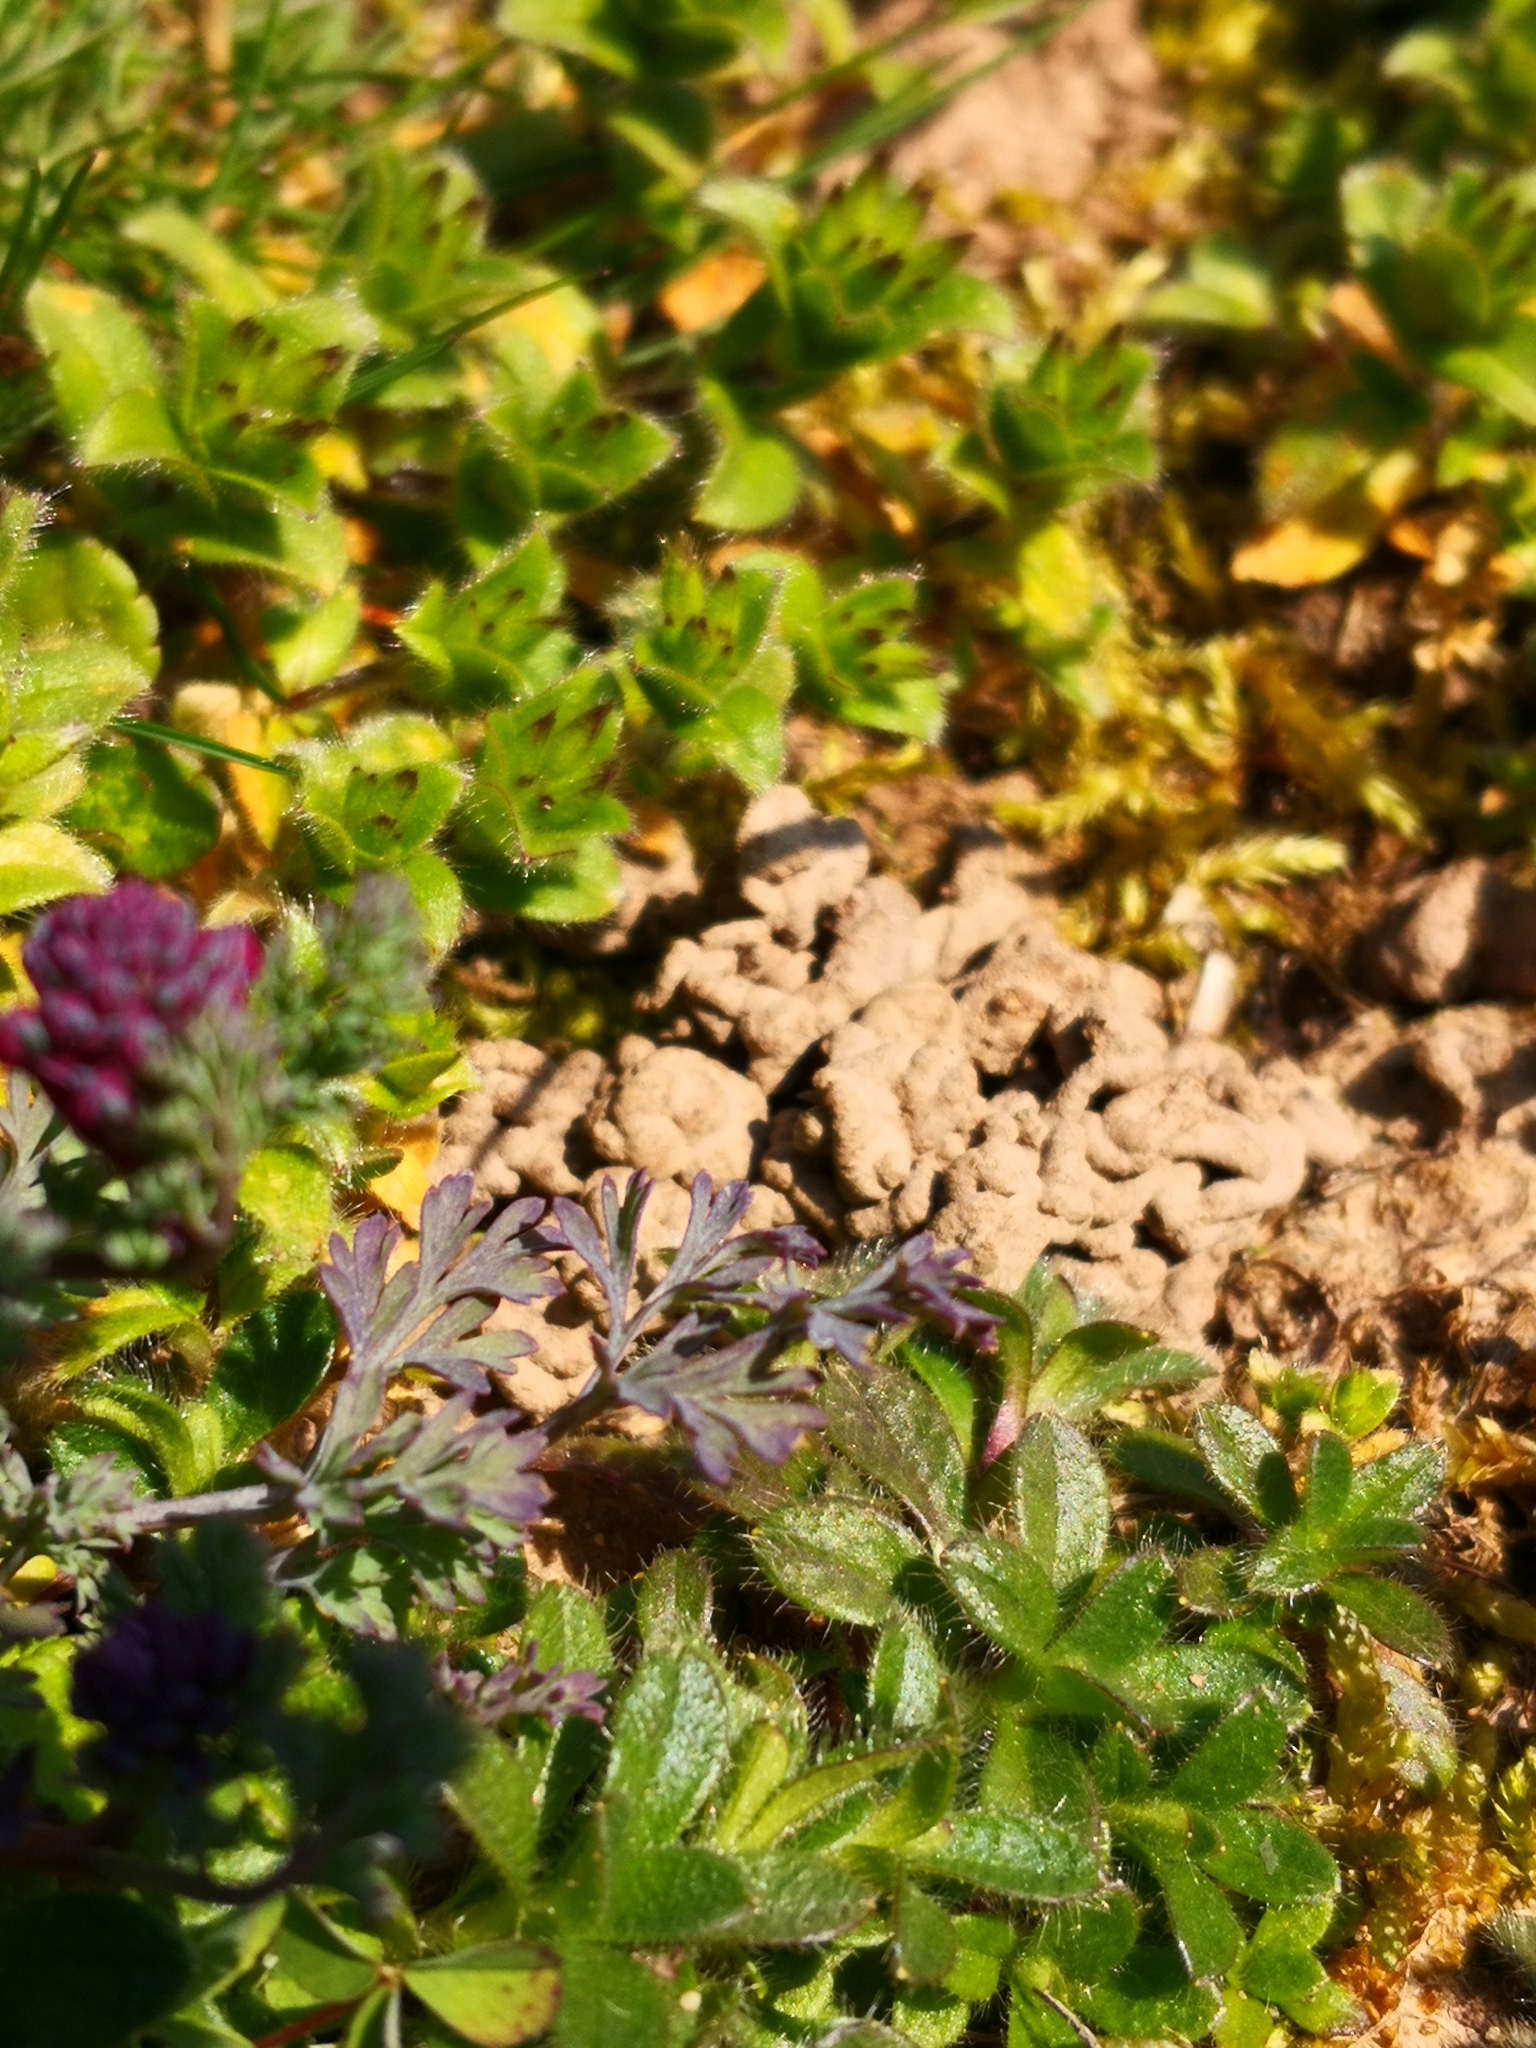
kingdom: Plantae
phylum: Tracheophyta
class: Magnoliopsida
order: Ranunculales
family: Papaveraceae
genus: Fumaria
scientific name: Fumaria officinalis
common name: Common fumitory
